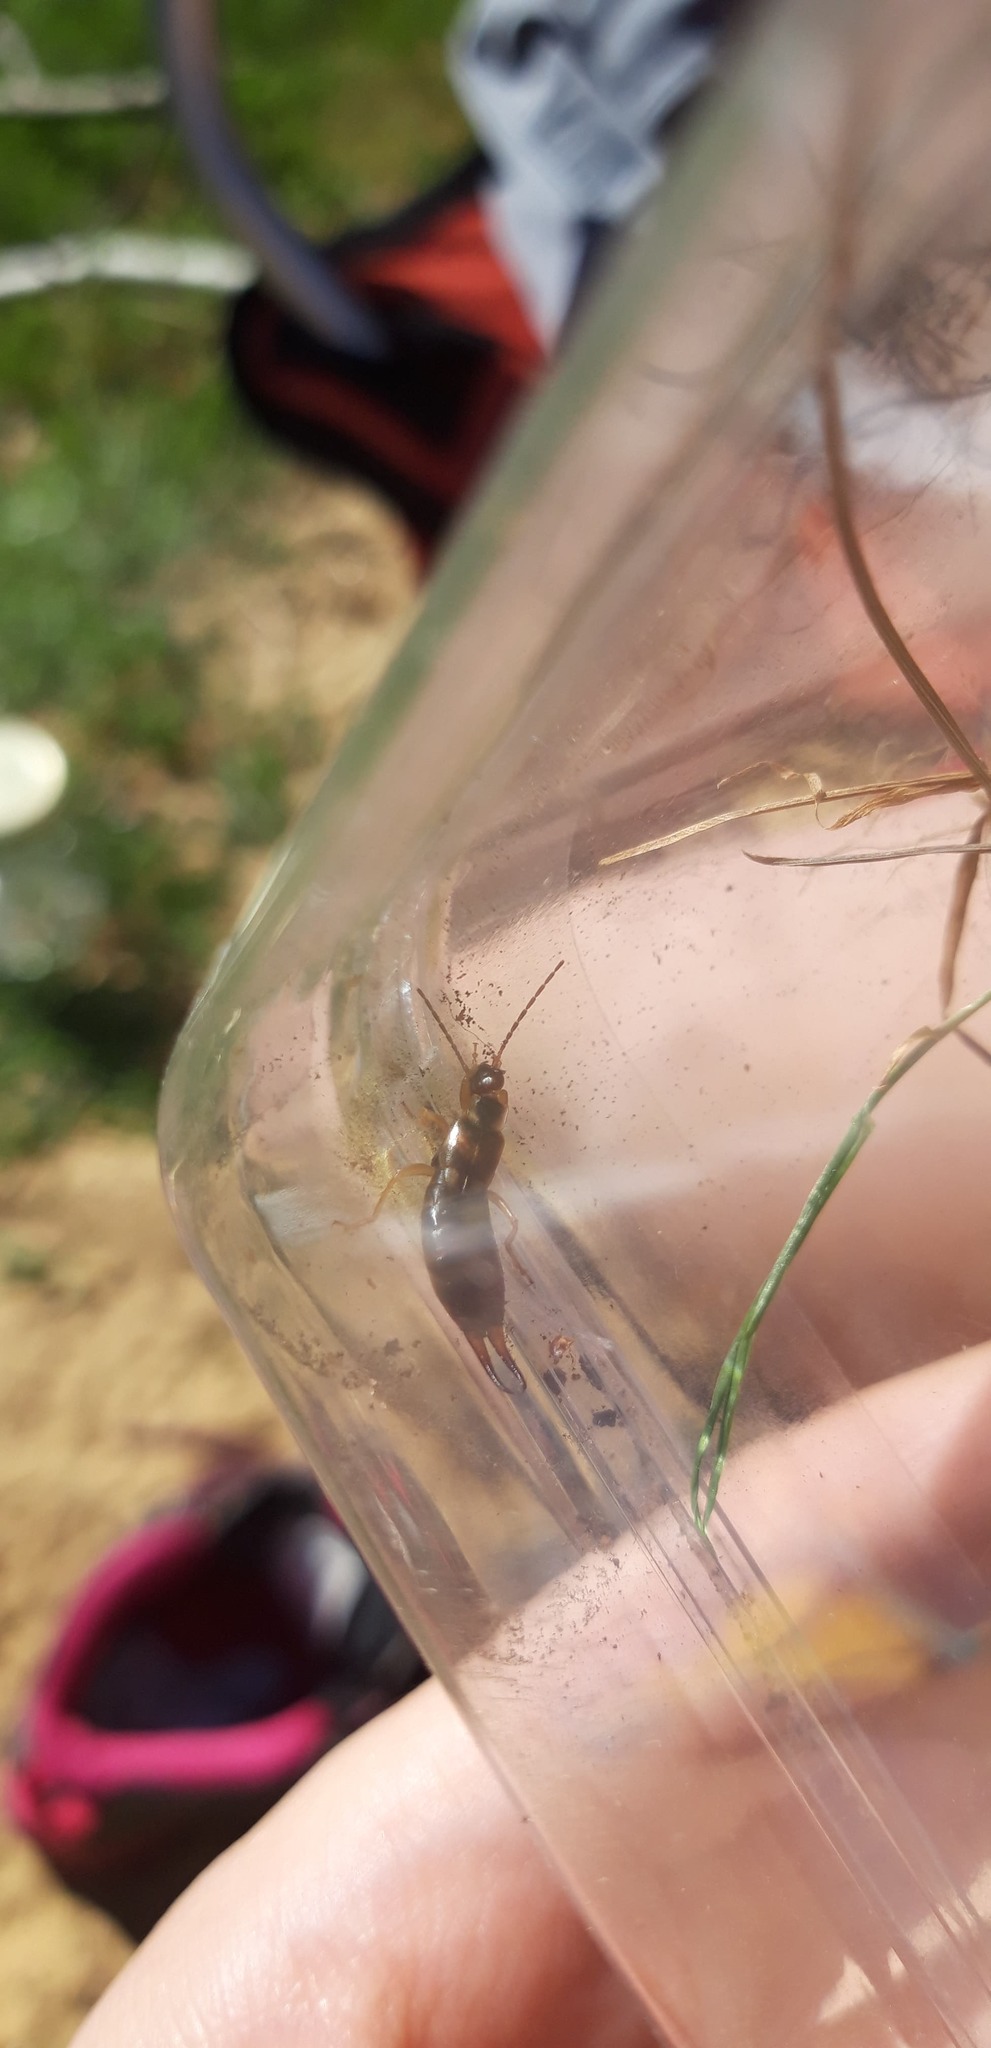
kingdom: Animalia
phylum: Arthropoda
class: Insecta
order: Dermaptera
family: Forficulidae
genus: Forficula
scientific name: Forficula
